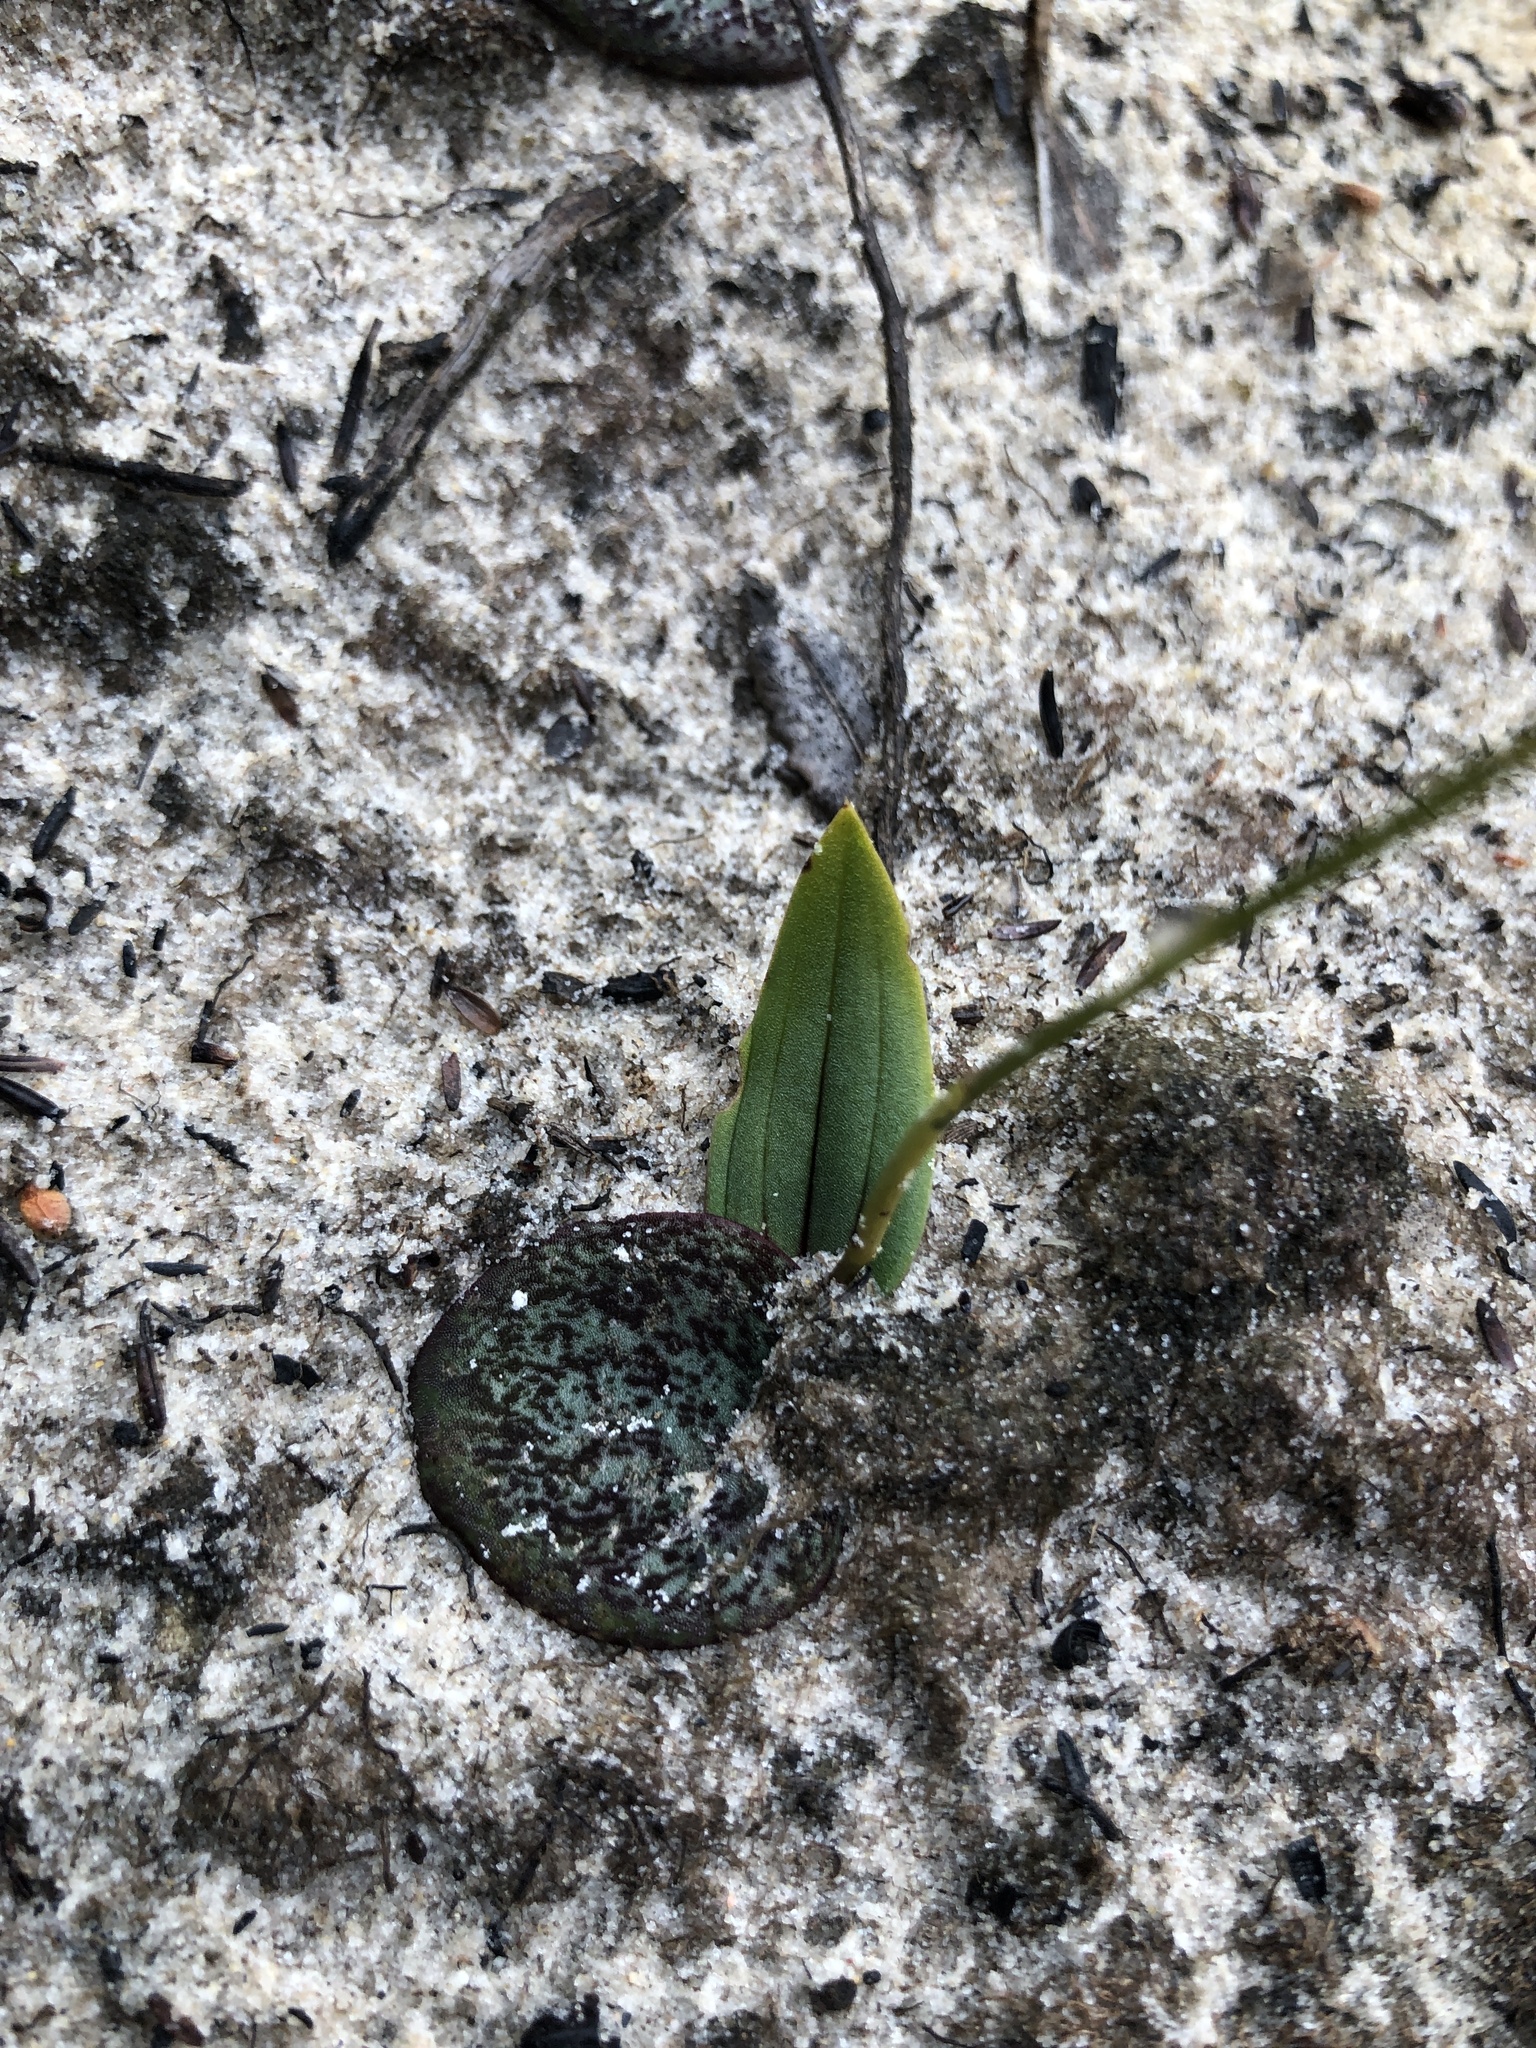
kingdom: Plantae
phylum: Tracheophyta
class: Liliopsida
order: Asparagales
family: Orchidaceae
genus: Leporella
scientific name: Leporella fimbriata
